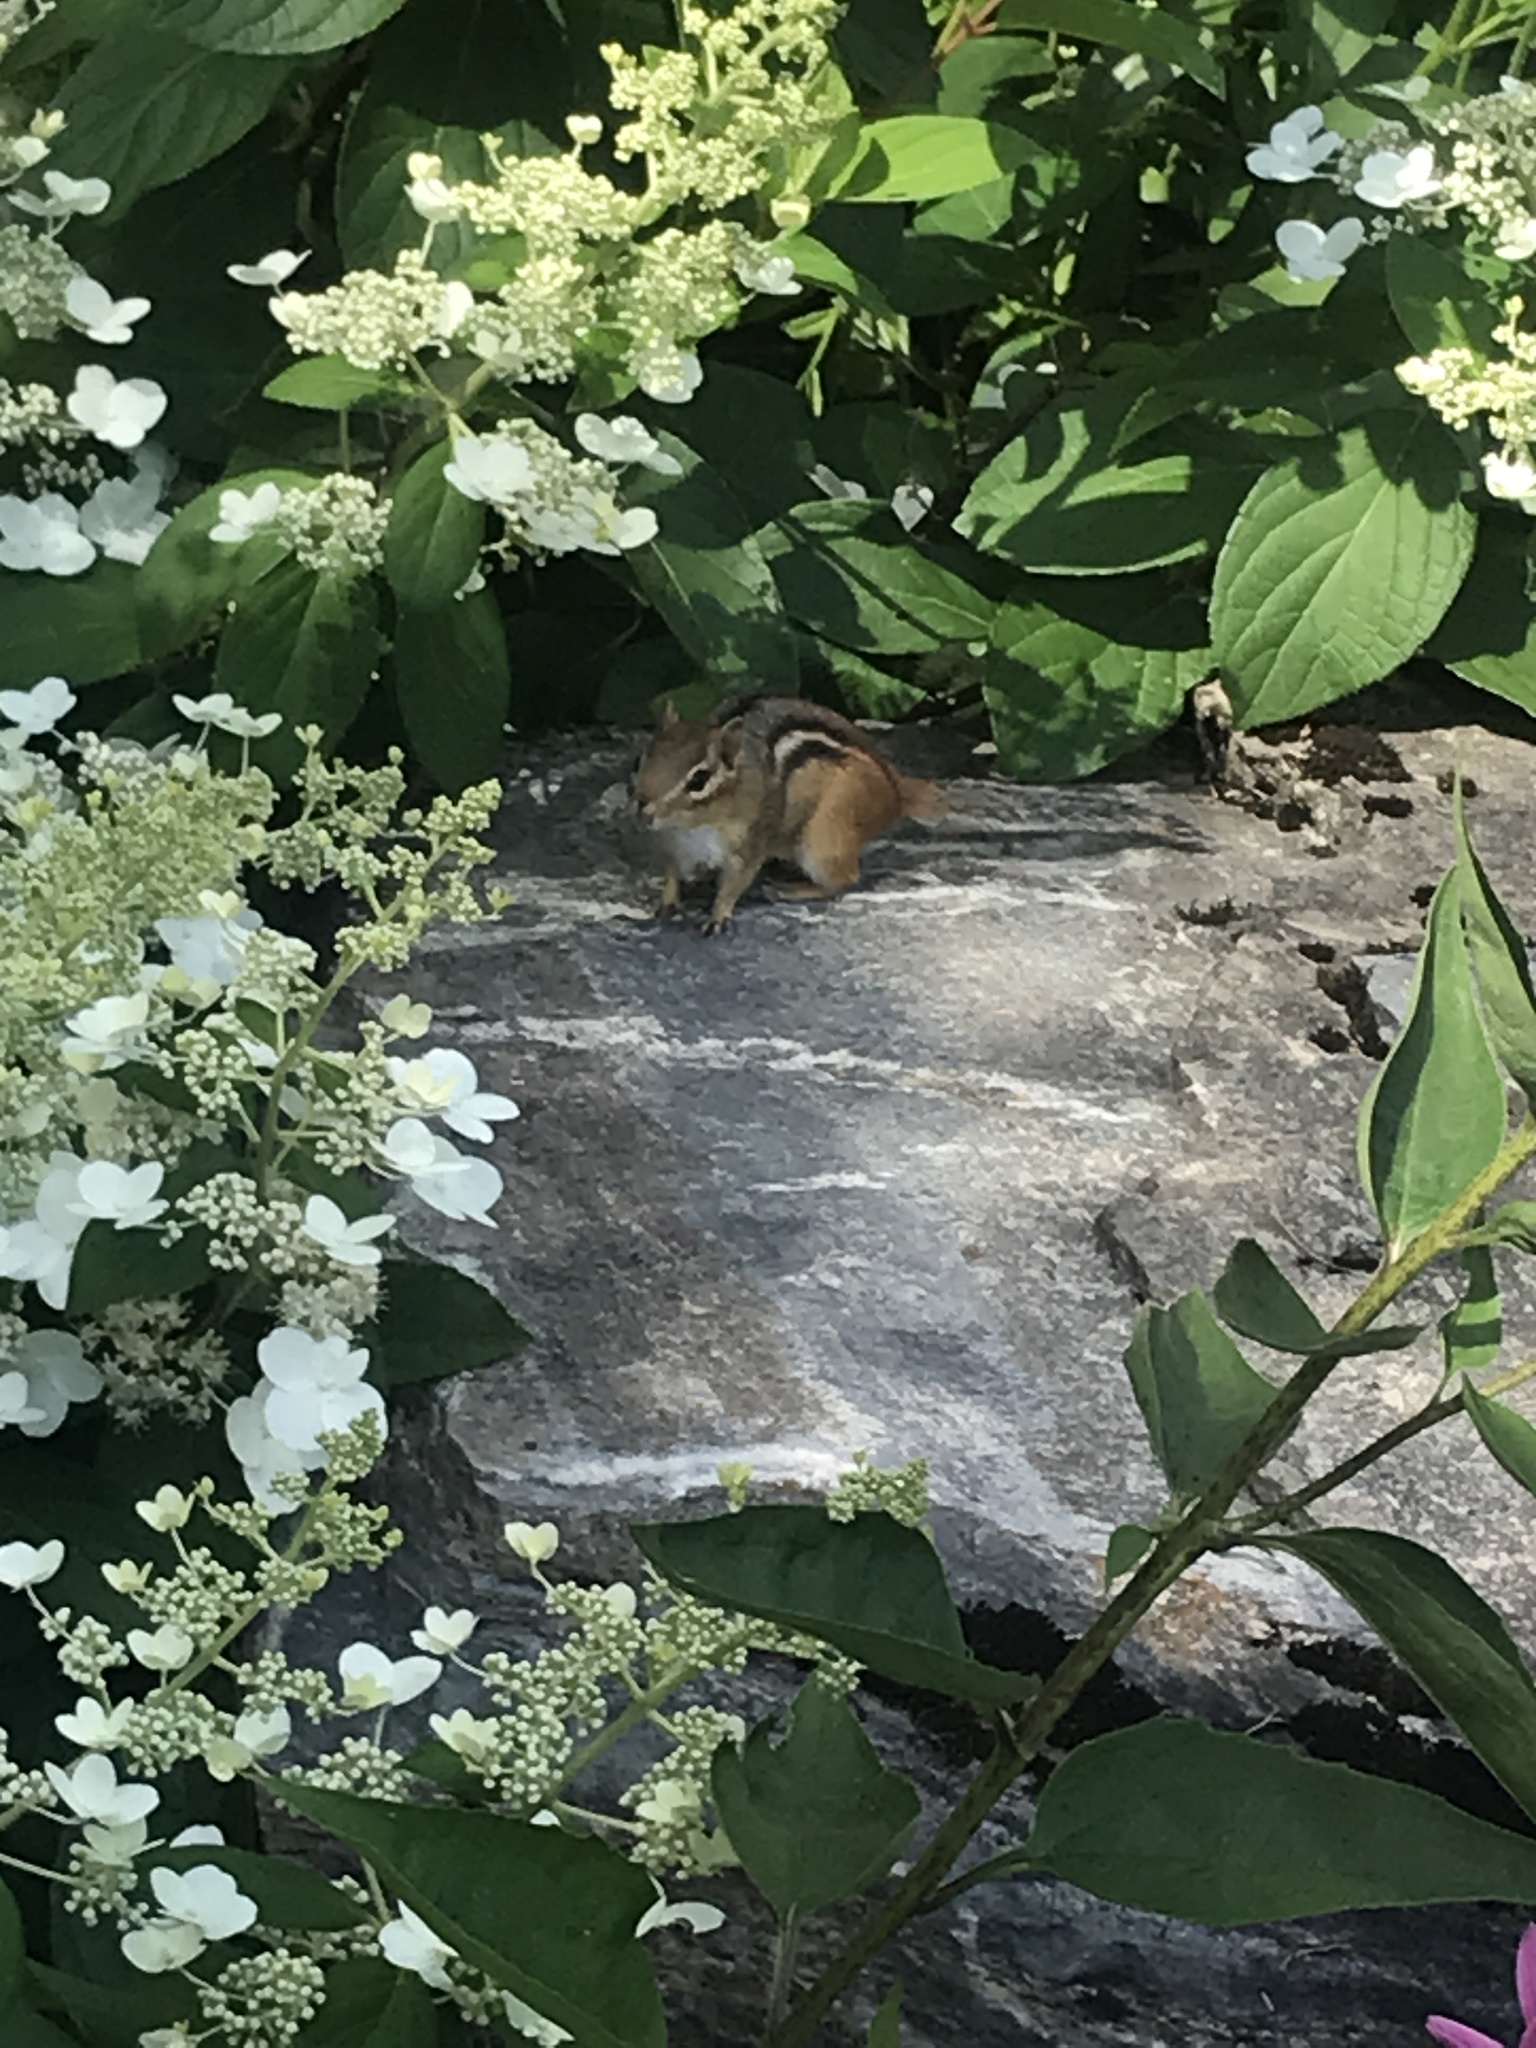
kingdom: Animalia
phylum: Chordata
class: Mammalia
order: Rodentia
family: Sciuridae
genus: Tamias
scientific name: Tamias striatus
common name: Eastern chipmunk
